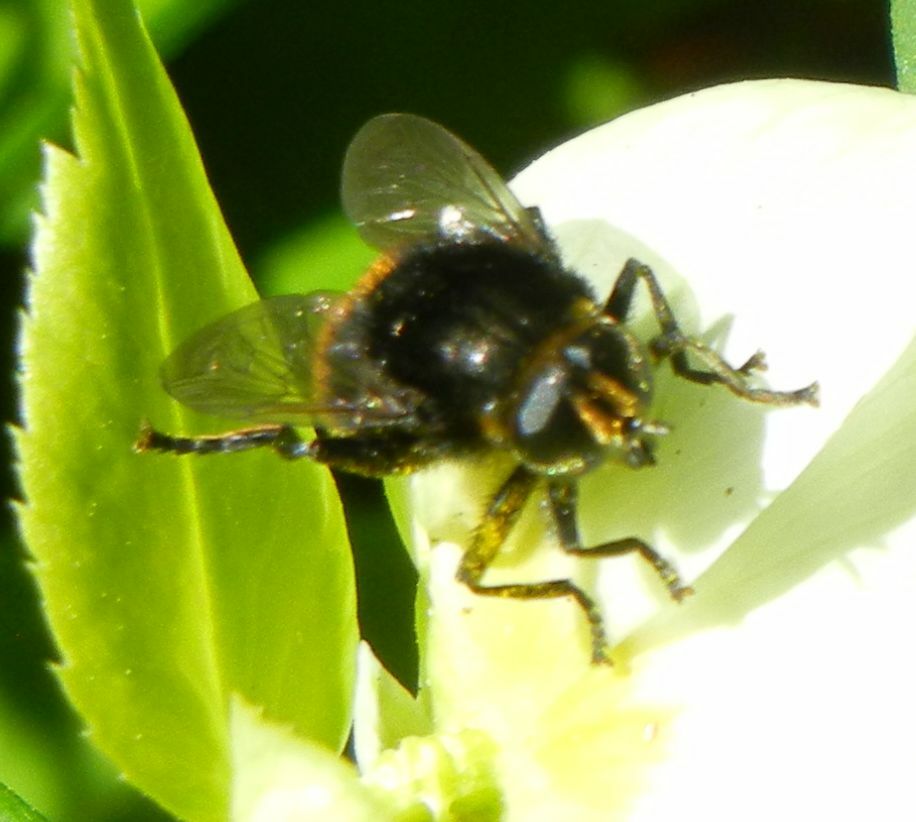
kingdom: Animalia
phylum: Arthropoda
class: Insecta
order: Diptera
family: Syrphidae
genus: Merodon
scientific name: Merodon equestris
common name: Greater bulb-fly
